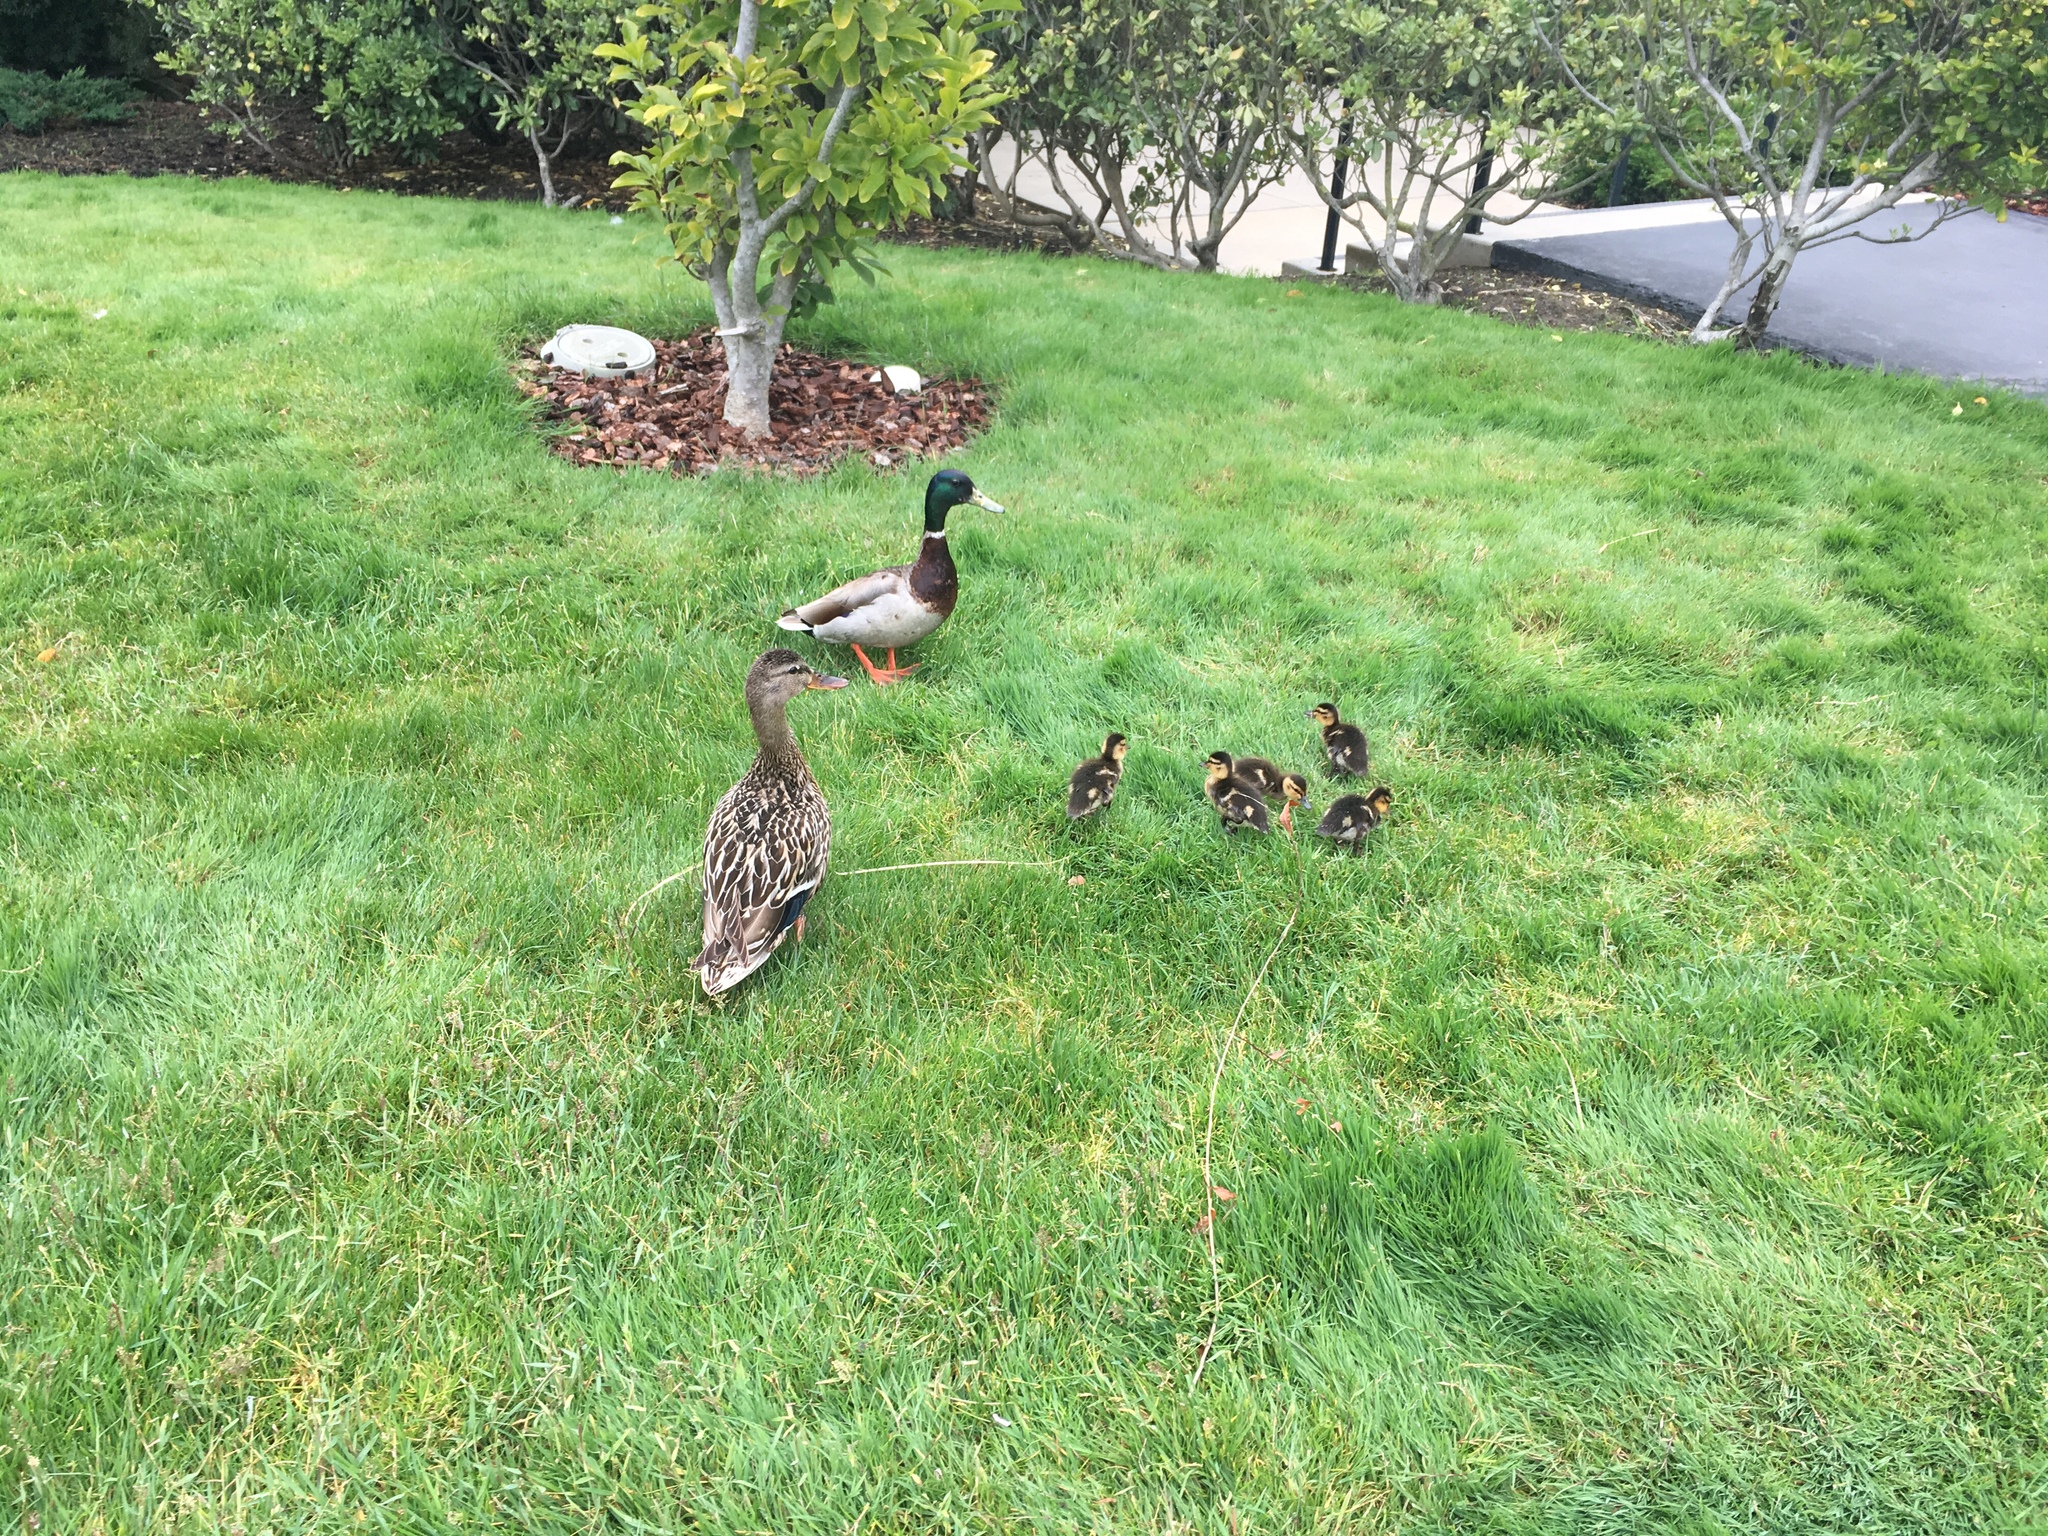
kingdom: Animalia
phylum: Chordata
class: Aves
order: Anseriformes
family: Anatidae
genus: Anas
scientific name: Anas platyrhynchos
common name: Mallard
